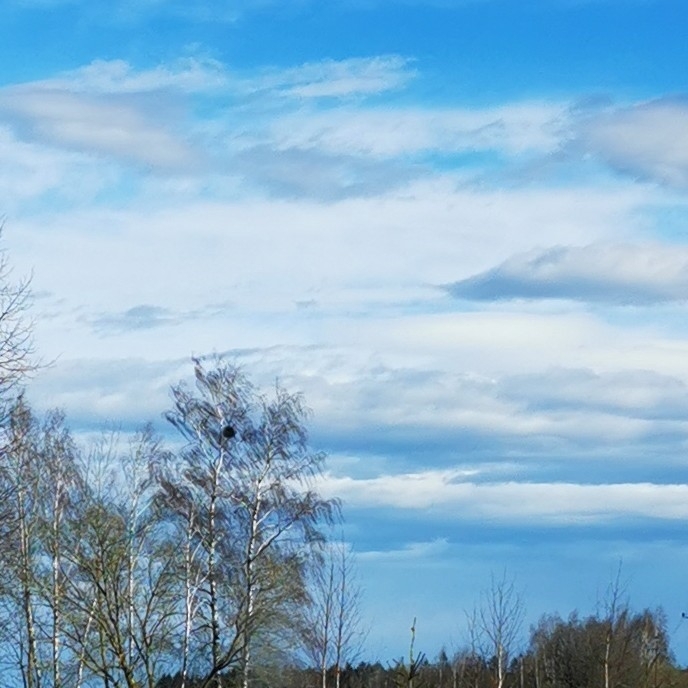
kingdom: Plantae
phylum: Tracheophyta
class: Magnoliopsida
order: Santalales
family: Viscaceae
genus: Viscum
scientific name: Viscum album
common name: Mistletoe
